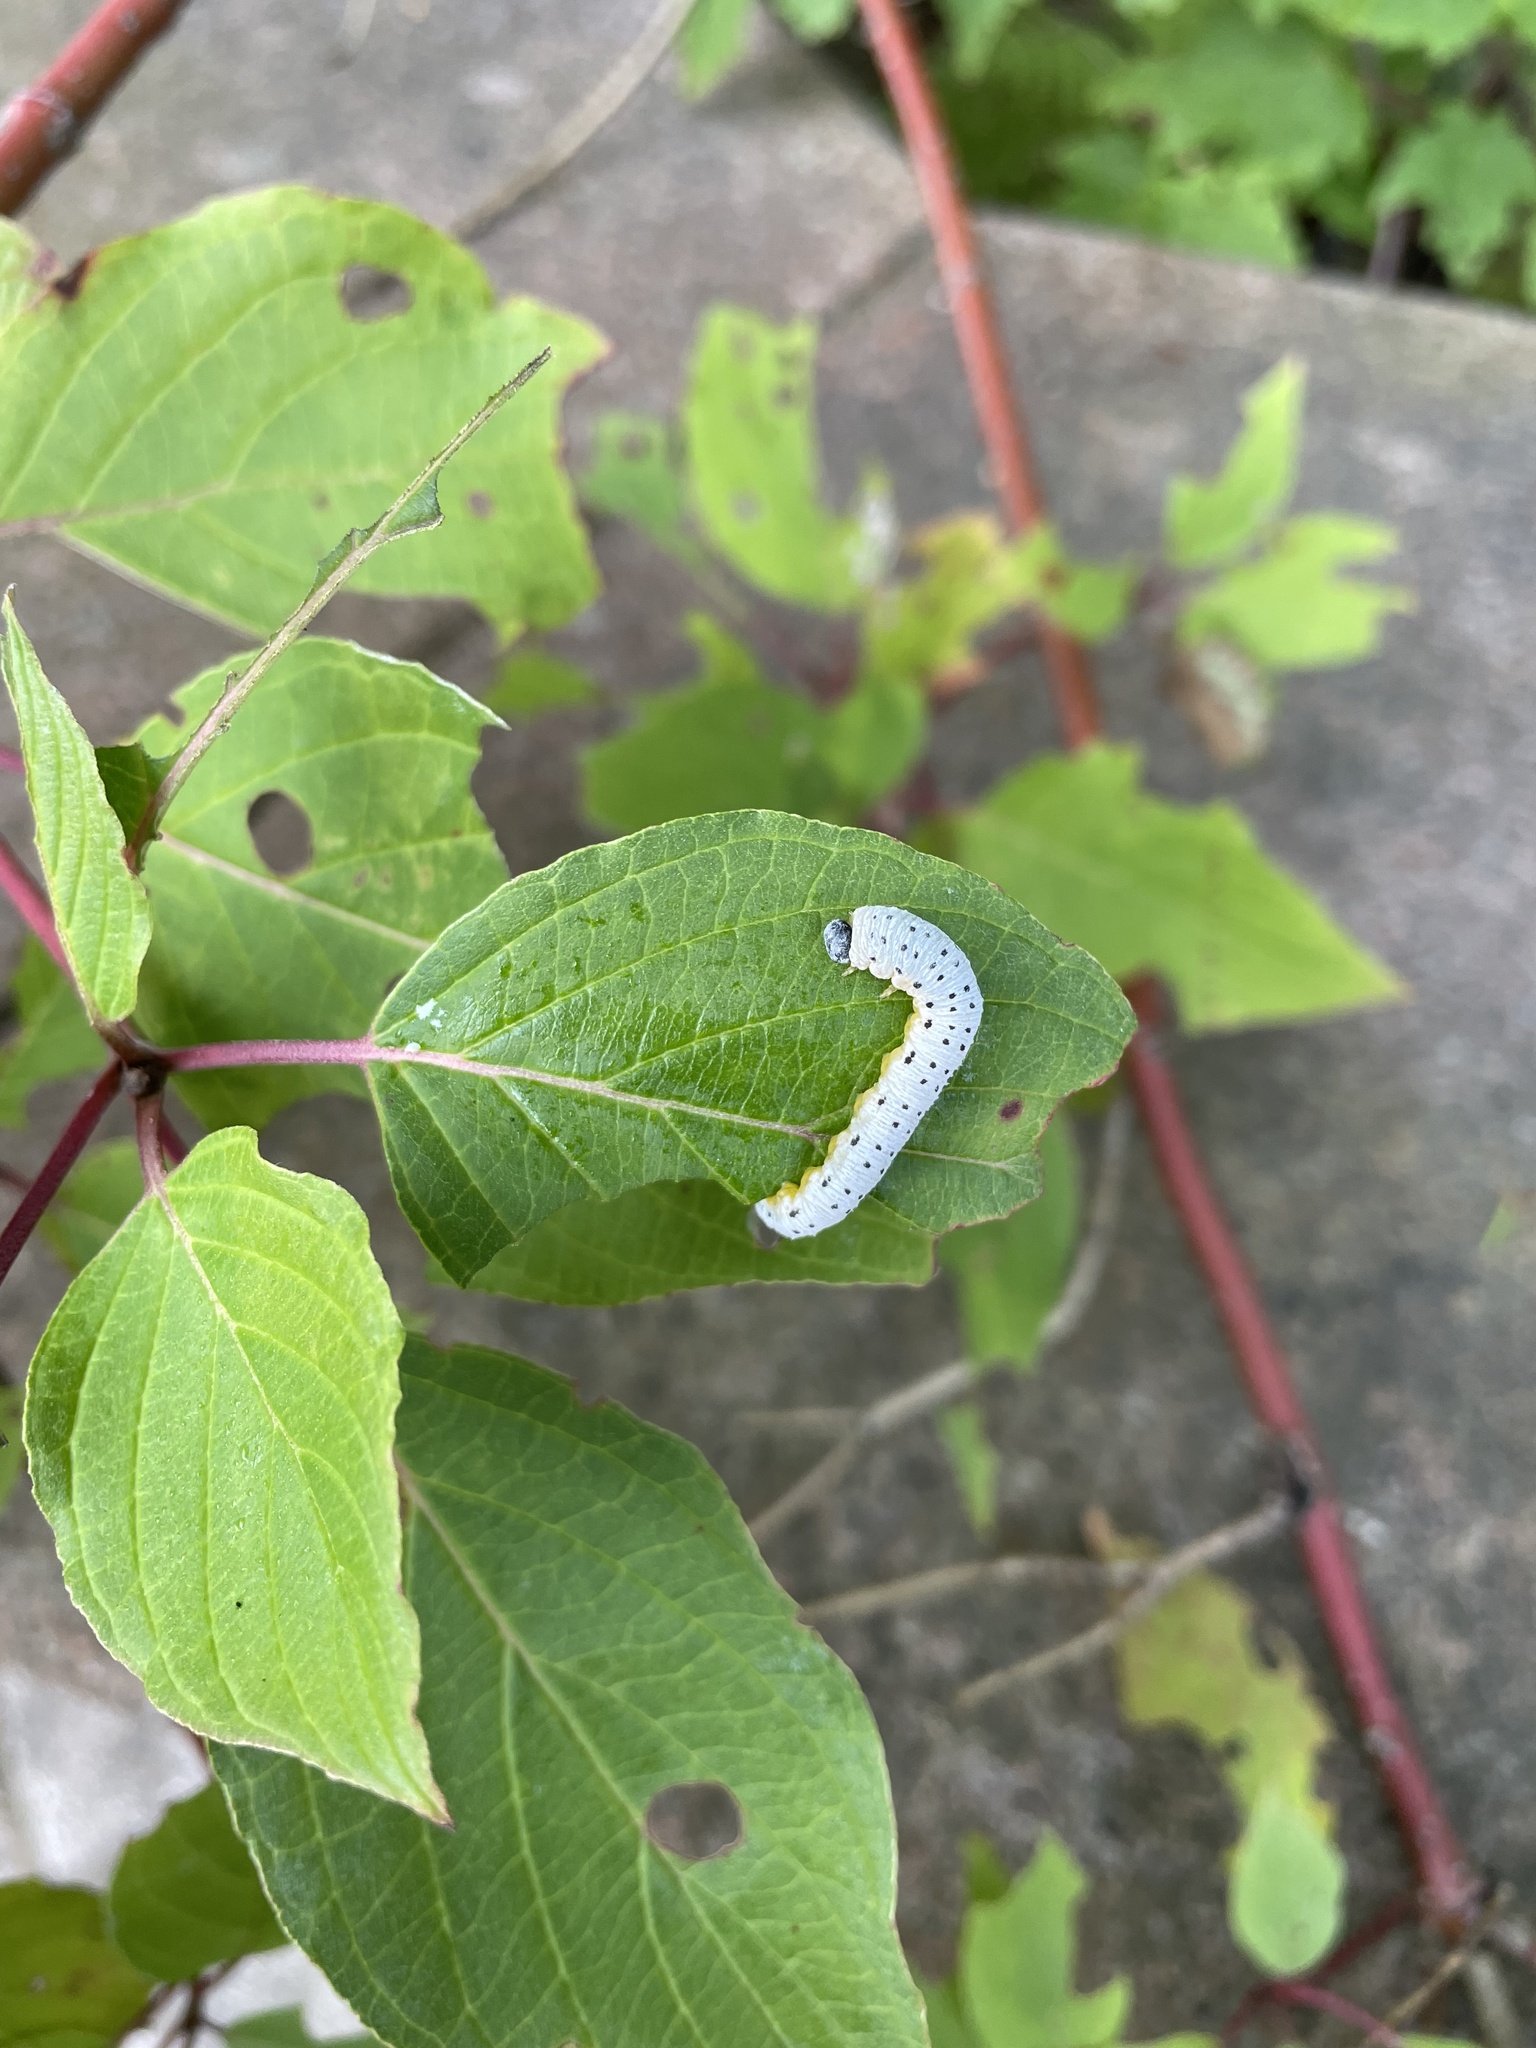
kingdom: Animalia
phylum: Arthropoda
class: Insecta
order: Hymenoptera
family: Tenthredinidae
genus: Macremphytus
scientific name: Macremphytus testaceus
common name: Dogwood sawfly
